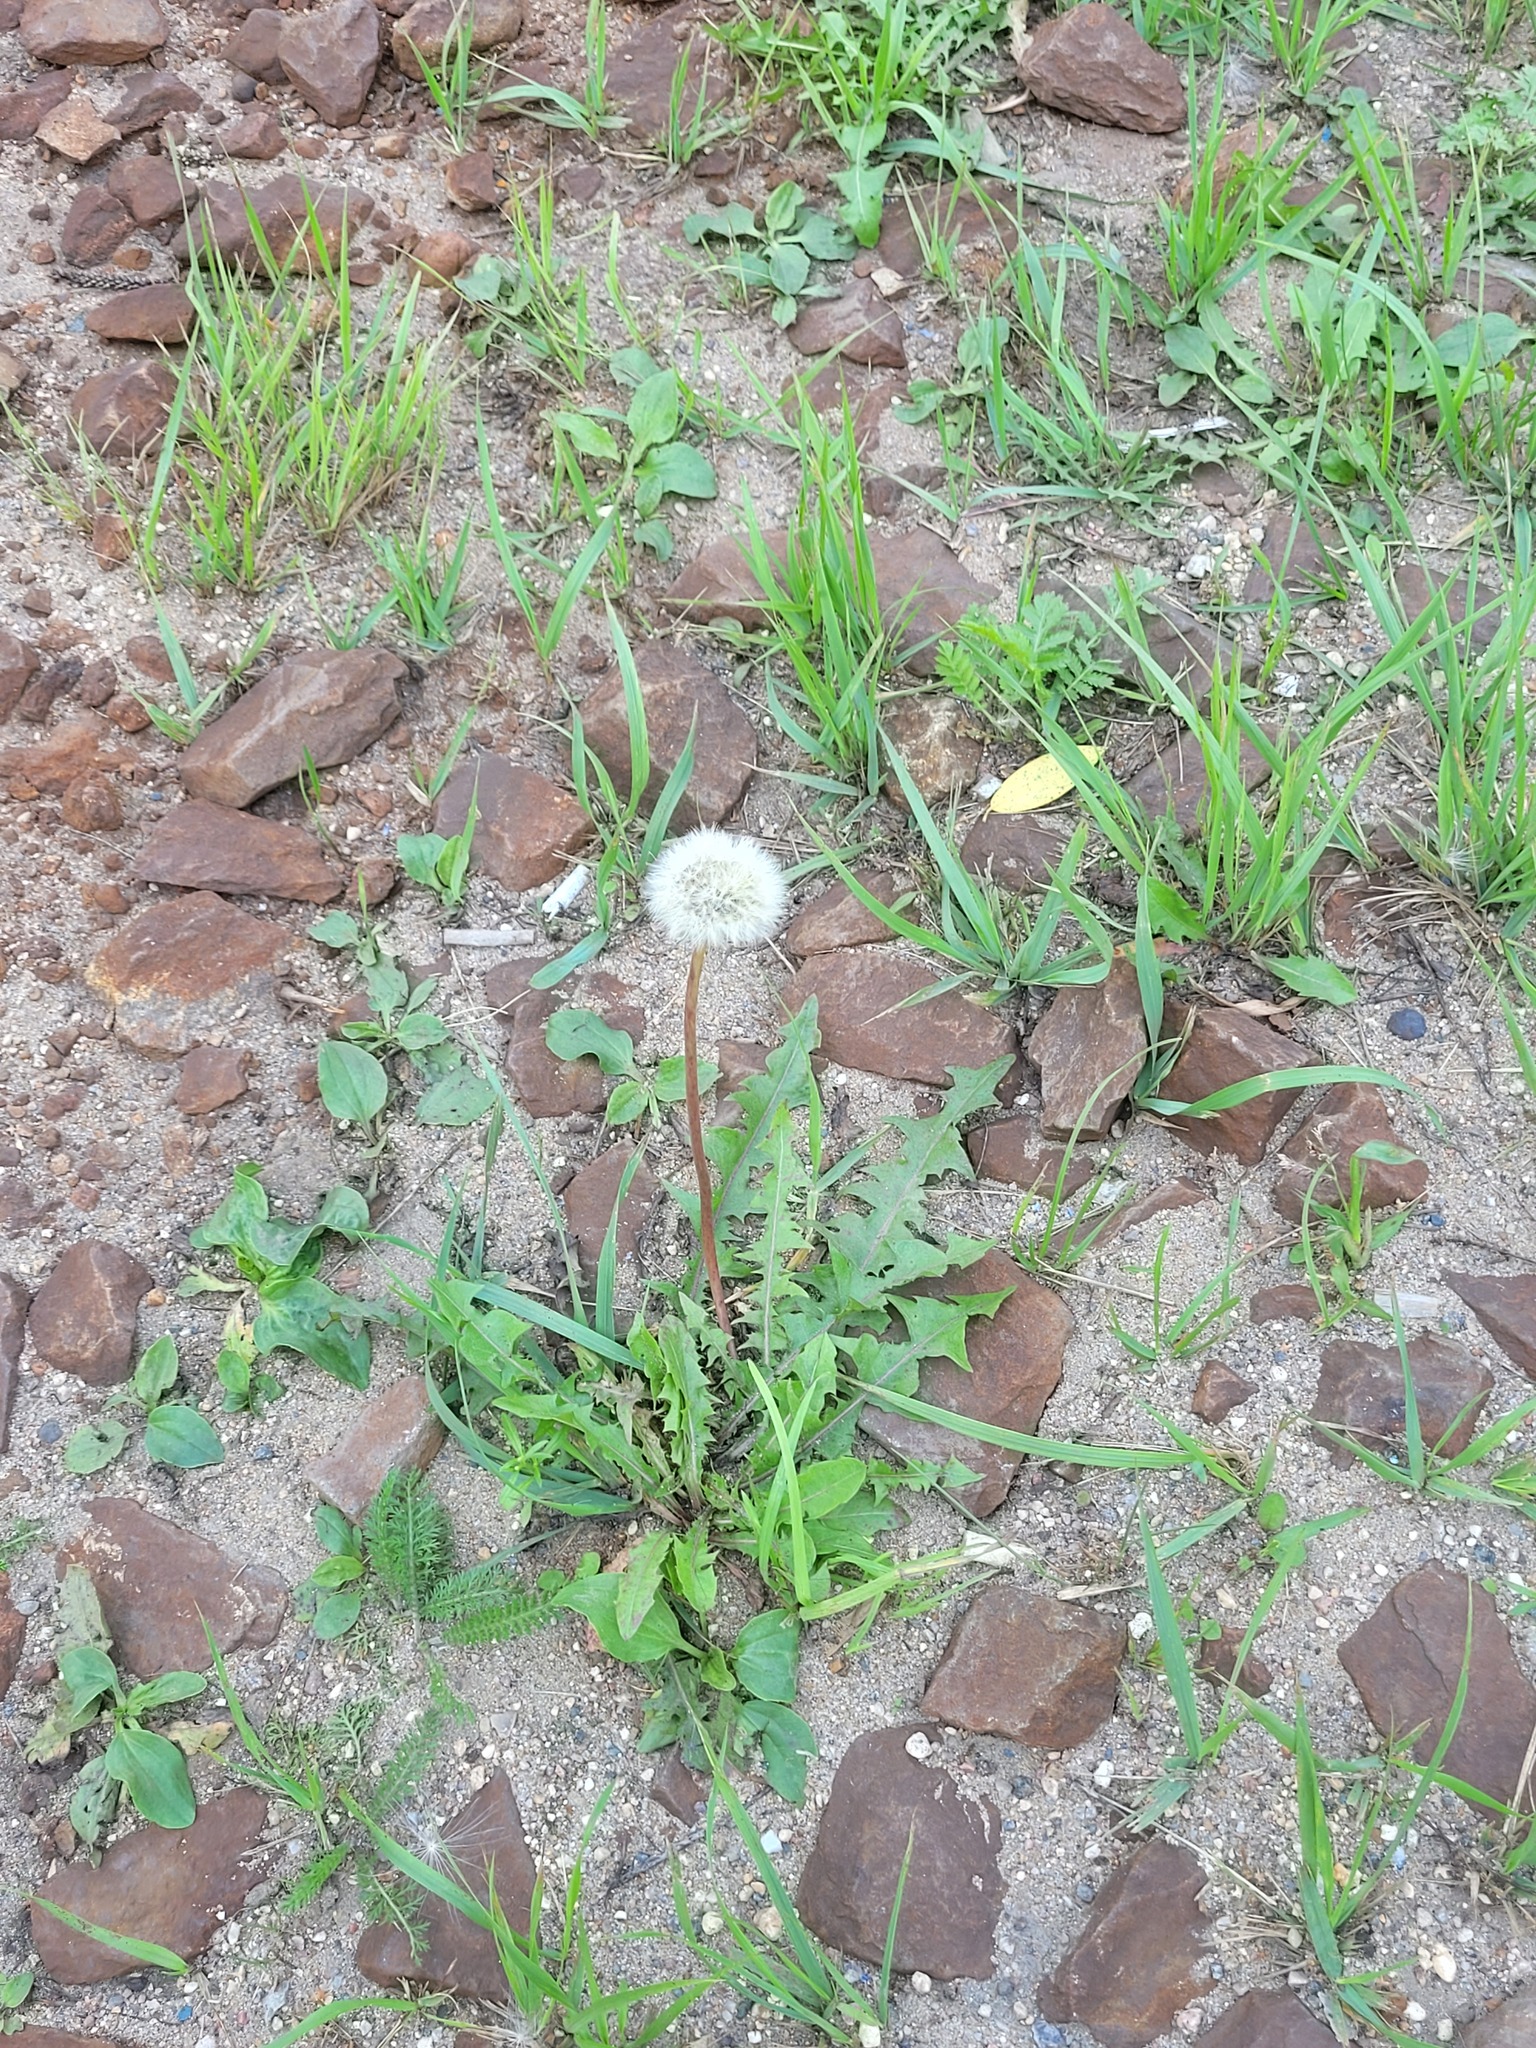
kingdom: Plantae
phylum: Tracheophyta
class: Magnoliopsida
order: Asterales
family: Asteraceae
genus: Taraxacum
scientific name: Taraxacum officinale
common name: Common dandelion
